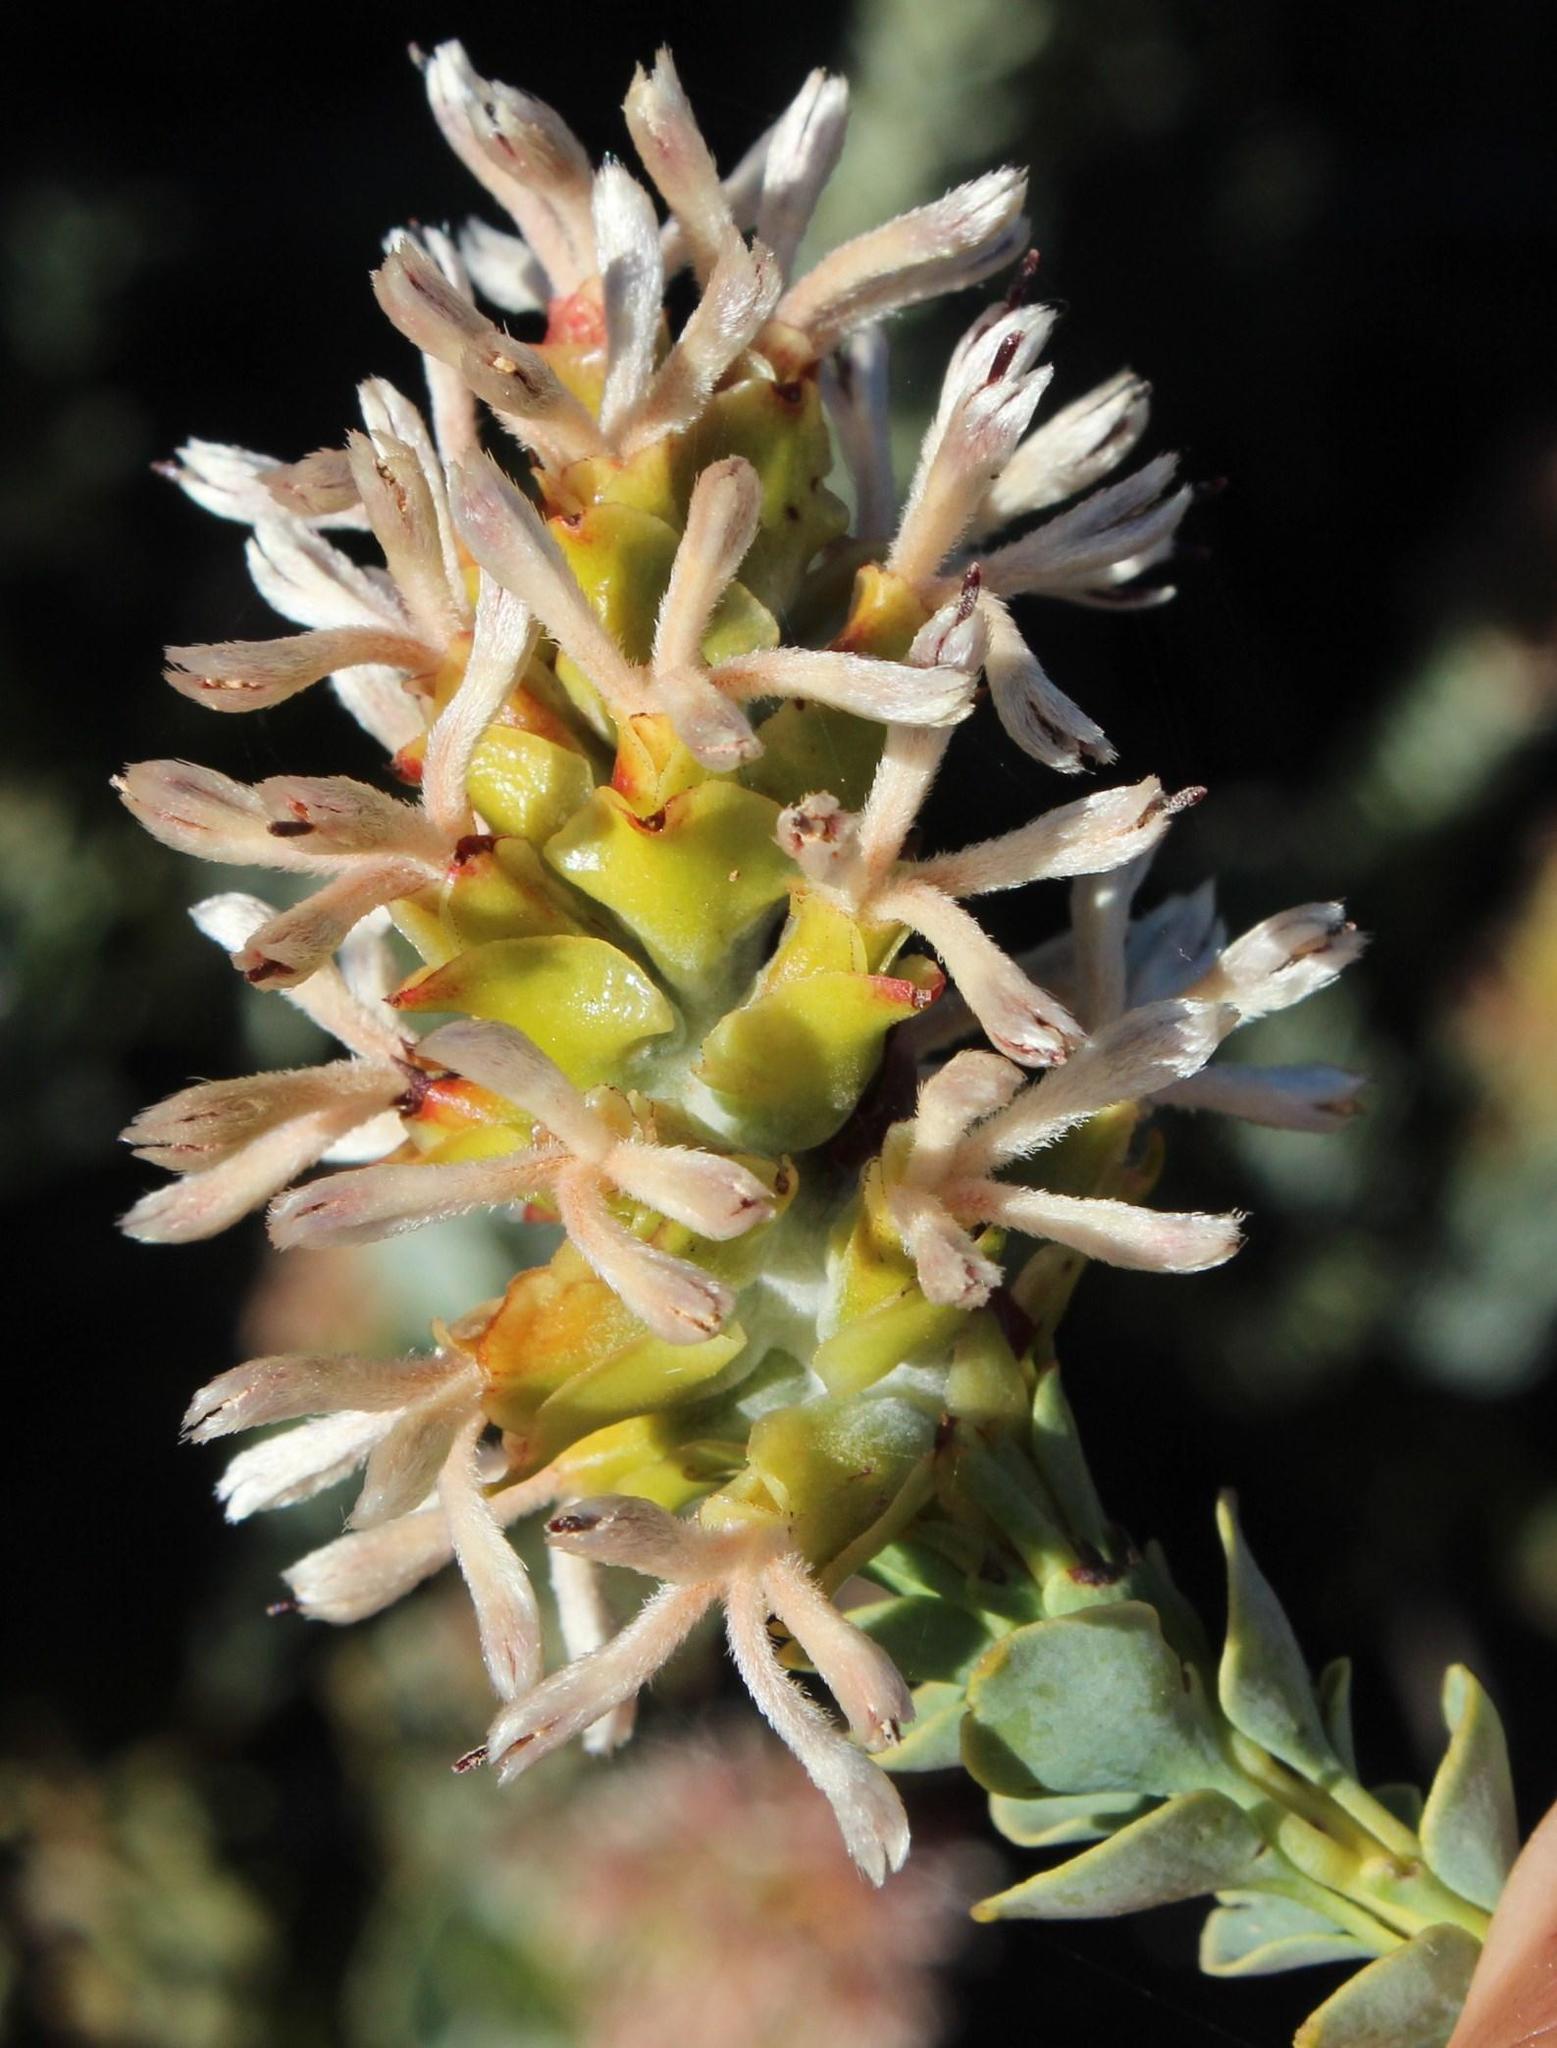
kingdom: Plantae
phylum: Tracheophyta
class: Magnoliopsida
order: Proteales
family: Proteaceae
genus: Paranomus
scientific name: Paranomus roodebergensis
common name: Honey-scented sceptre
